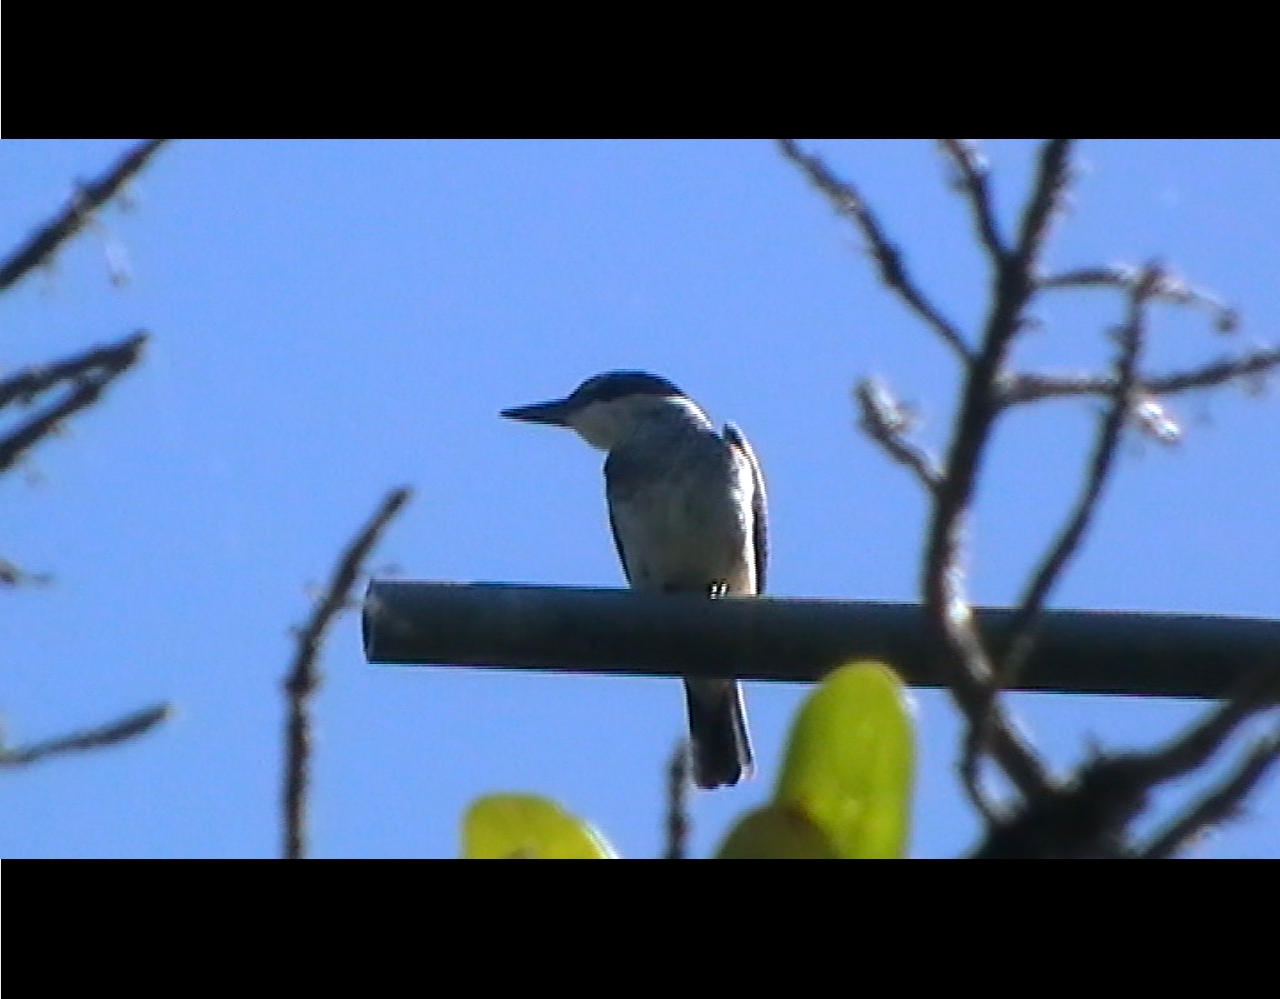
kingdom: Animalia
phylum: Chordata
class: Aves
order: Coraciiformes
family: Alcedinidae
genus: Todiramphus
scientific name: Todiramphus sanctus
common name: Sacred kingfisher
